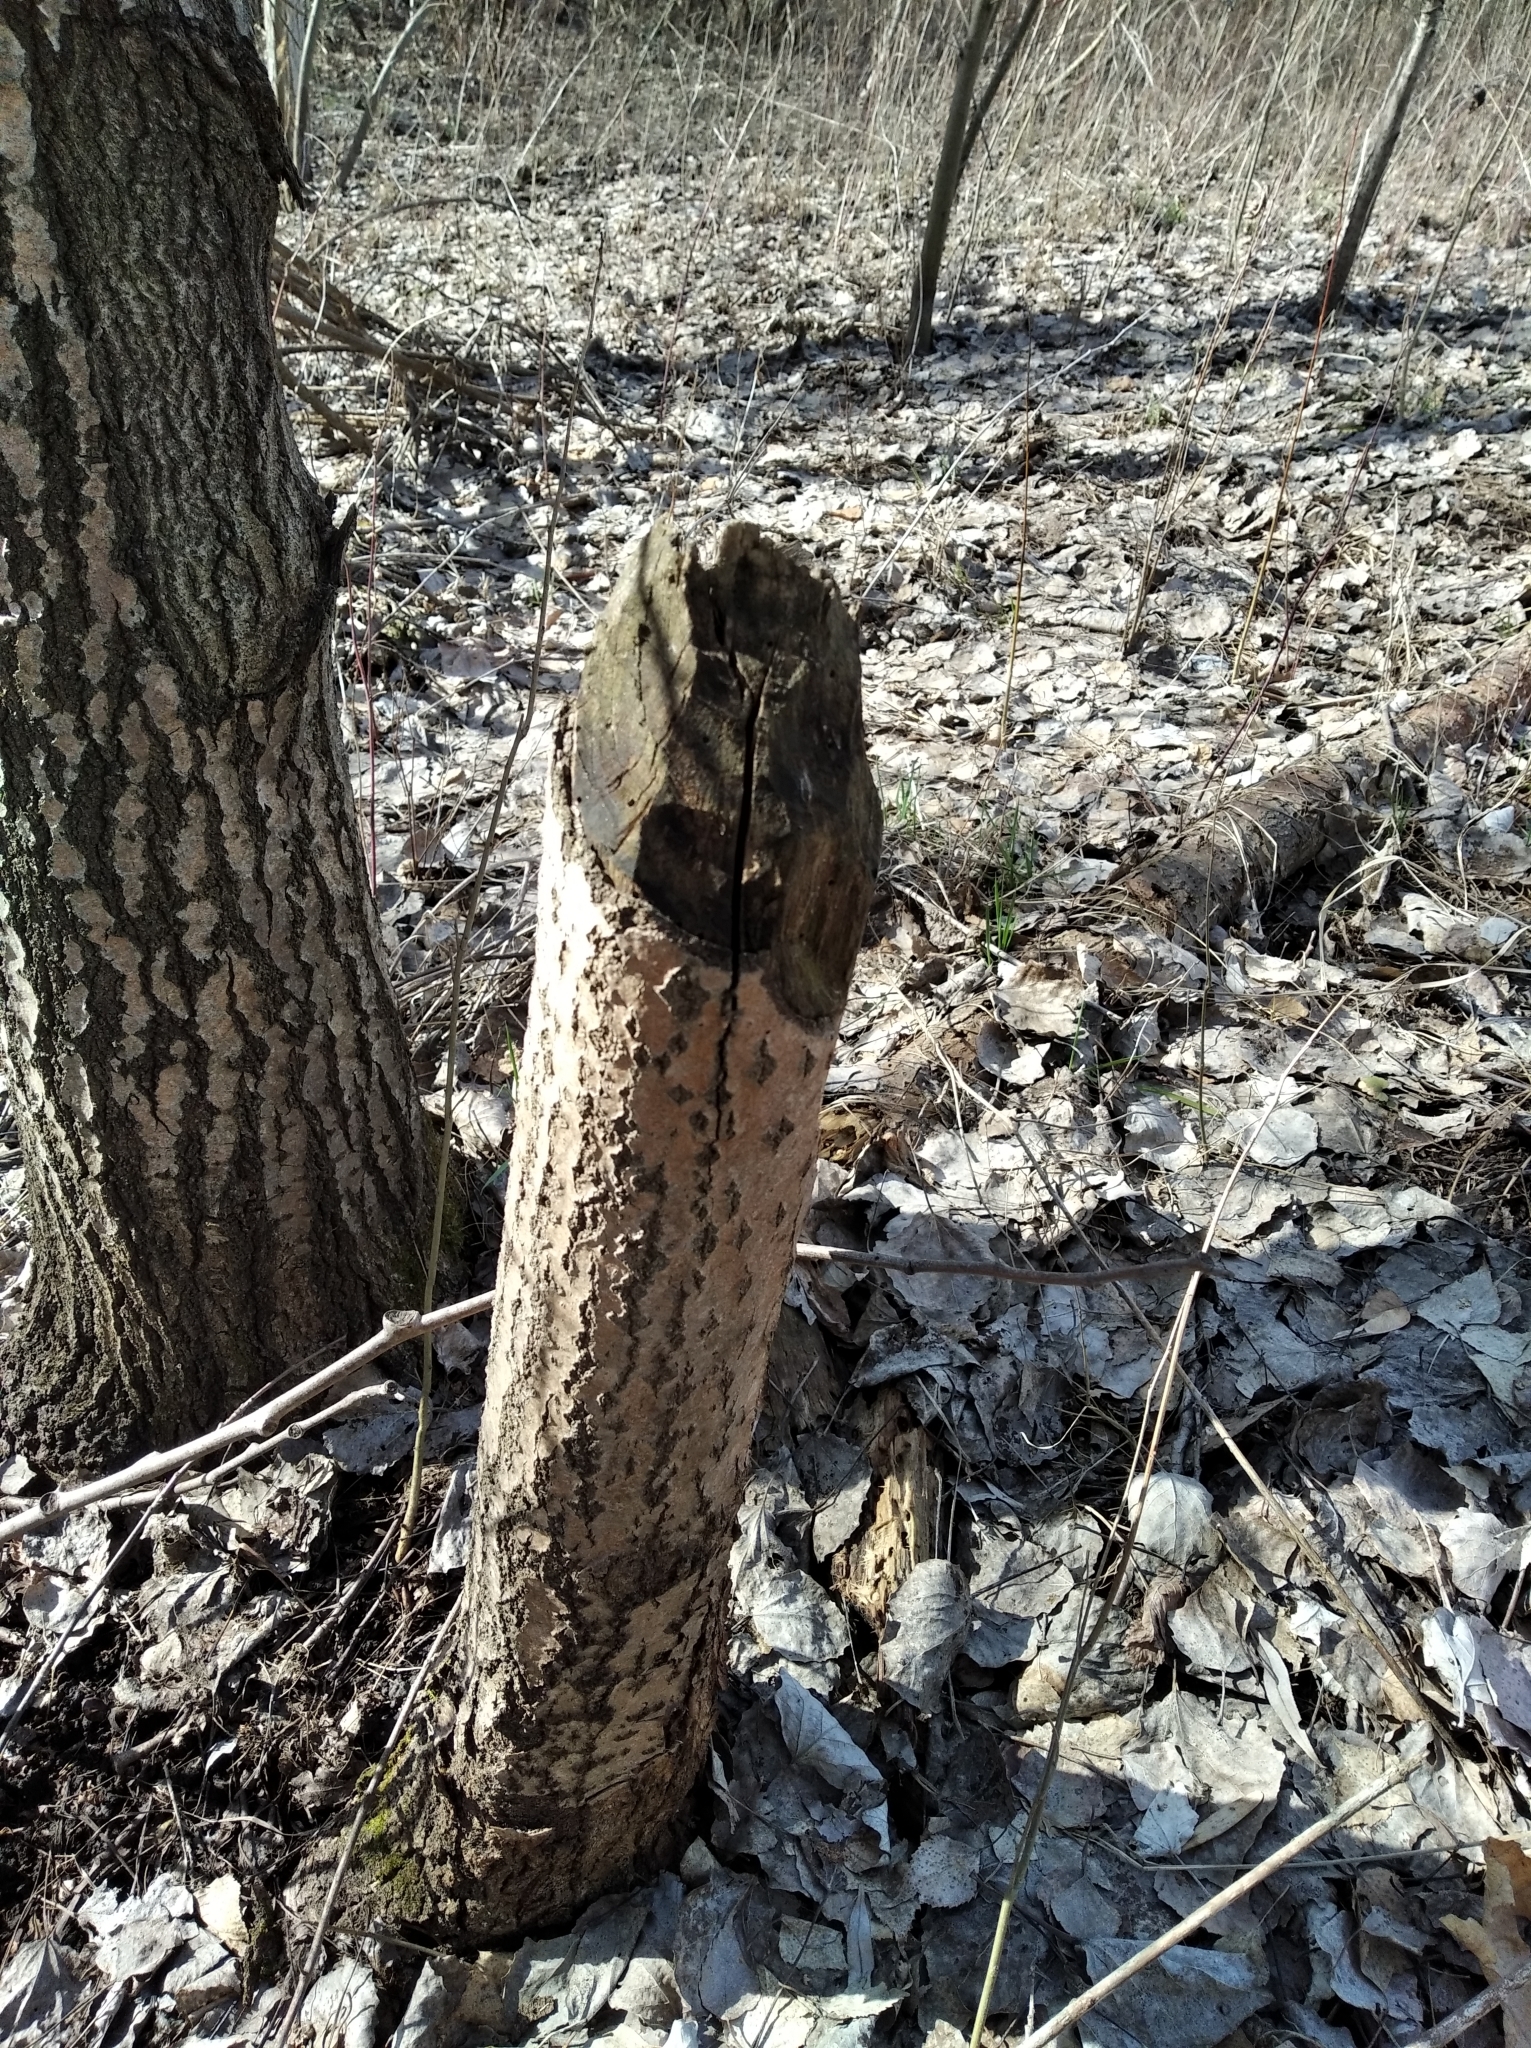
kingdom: Animalia
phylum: Chordata
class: Mammalia
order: Rodentia
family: Castoridae
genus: Castor
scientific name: Castor fiber
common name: Eurasian beaver
